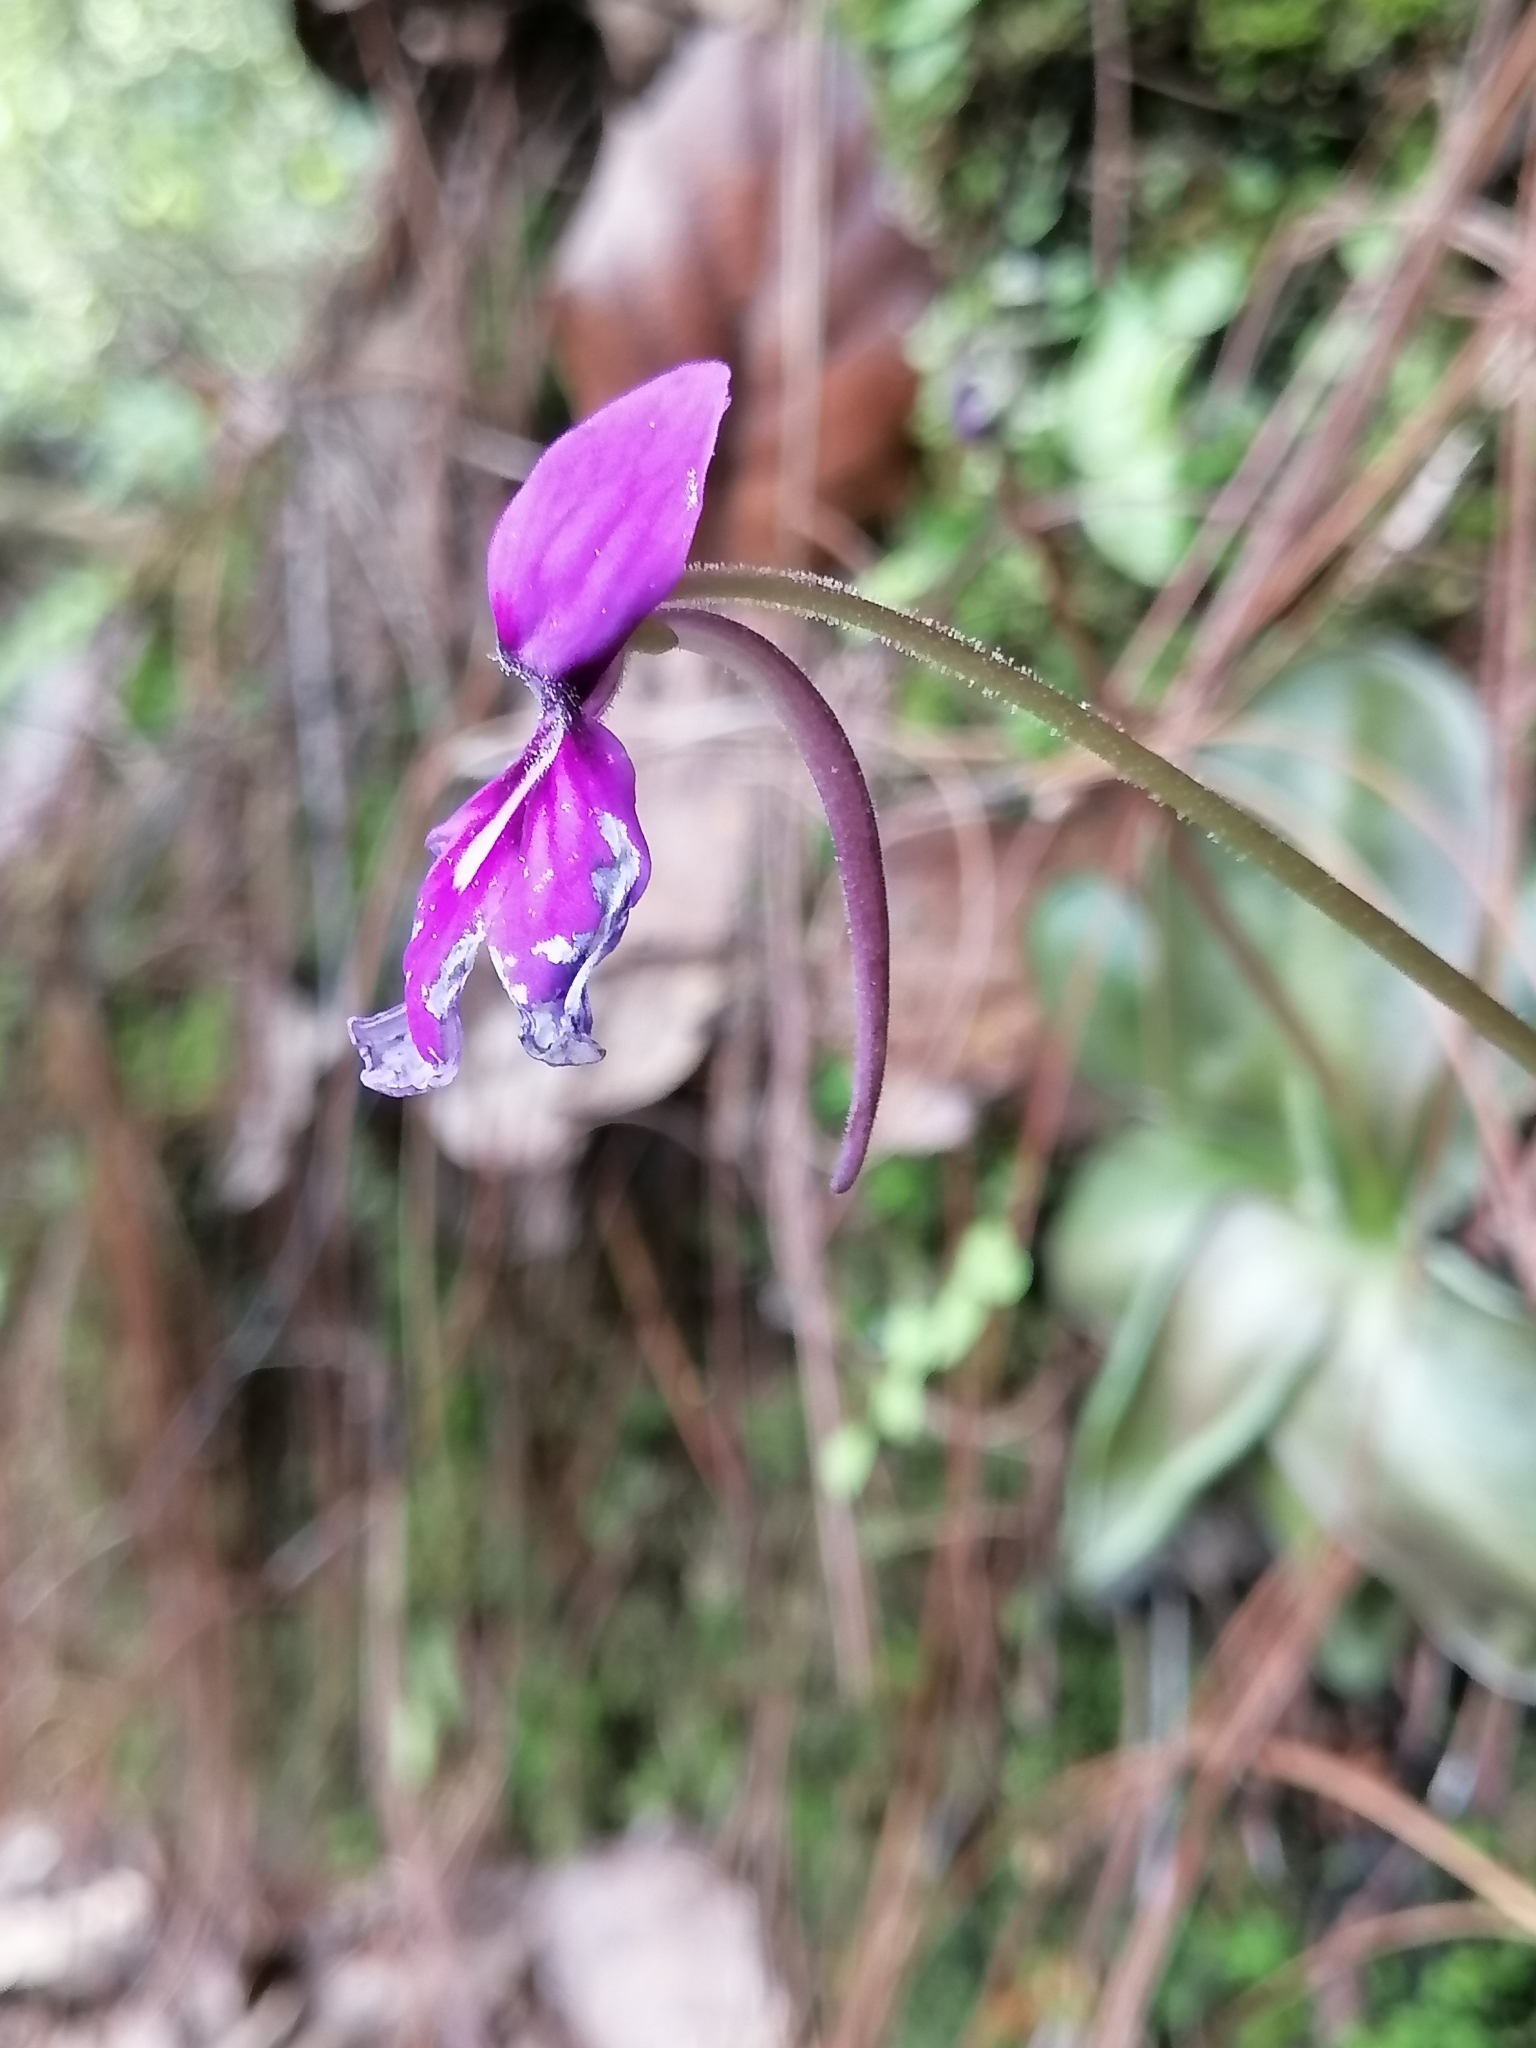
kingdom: Plantae
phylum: Tracheophyta
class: Magnoliopsida
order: Lamiales
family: Lentibulariaceae
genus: Pinguicula
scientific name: Pinguicula moranensis
